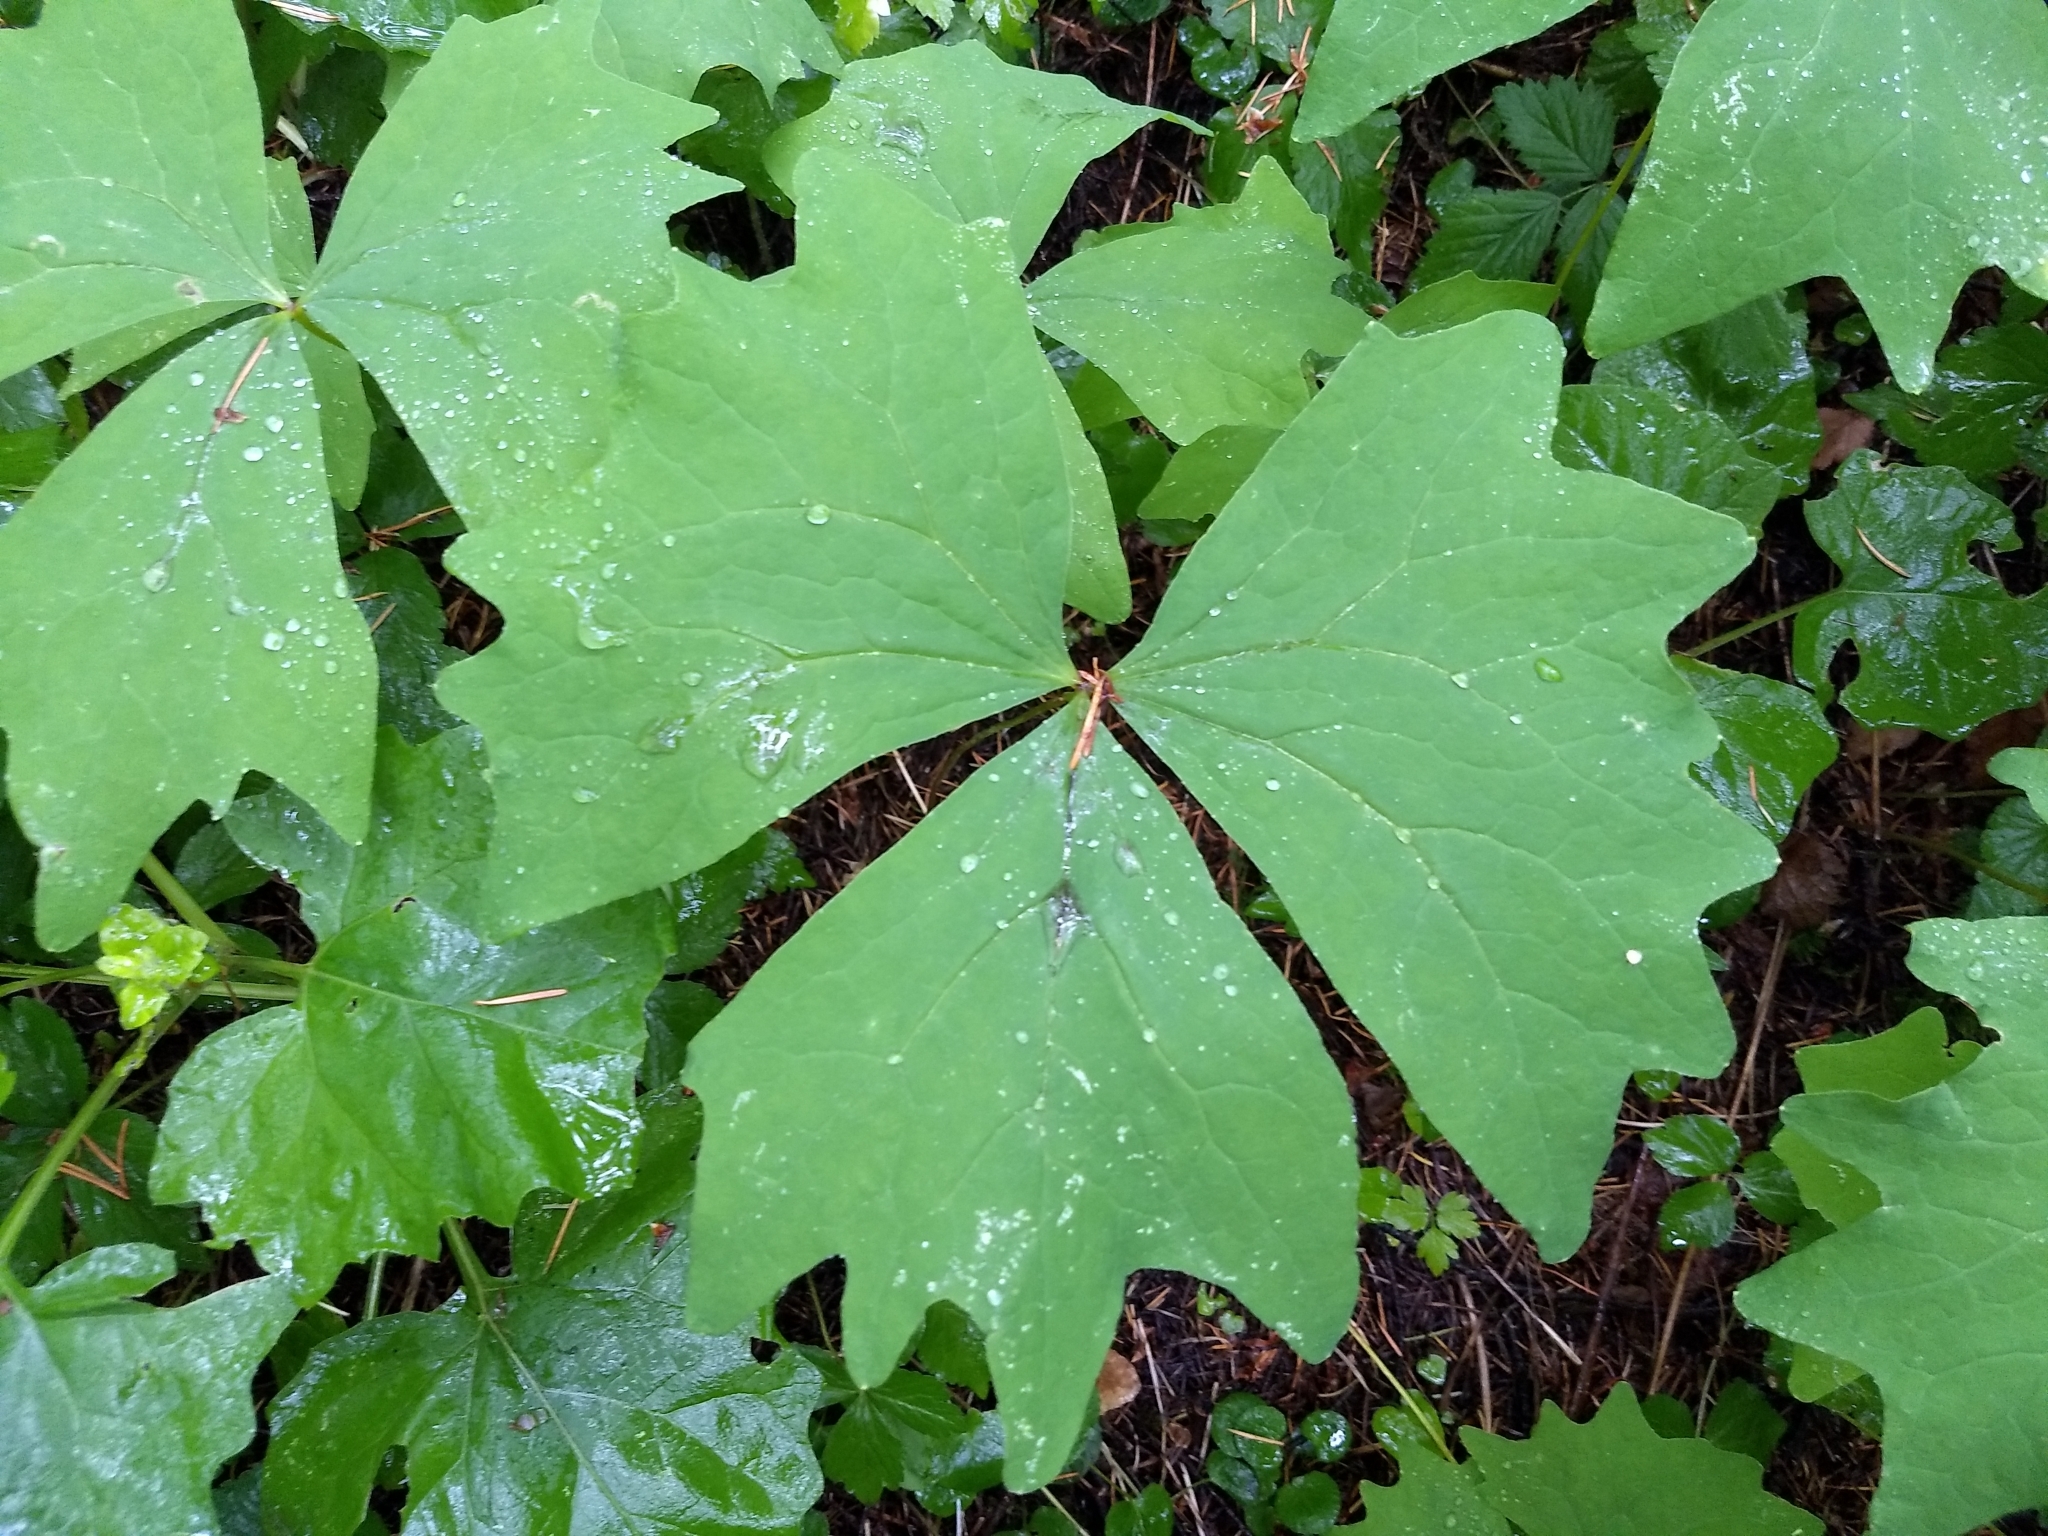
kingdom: Plantae
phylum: Tracheophyta
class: Magnoliopsida
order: Ranunculales
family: Berberidaceae
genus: Achlys
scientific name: Achlys triphylla
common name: Vanilla-leaf
